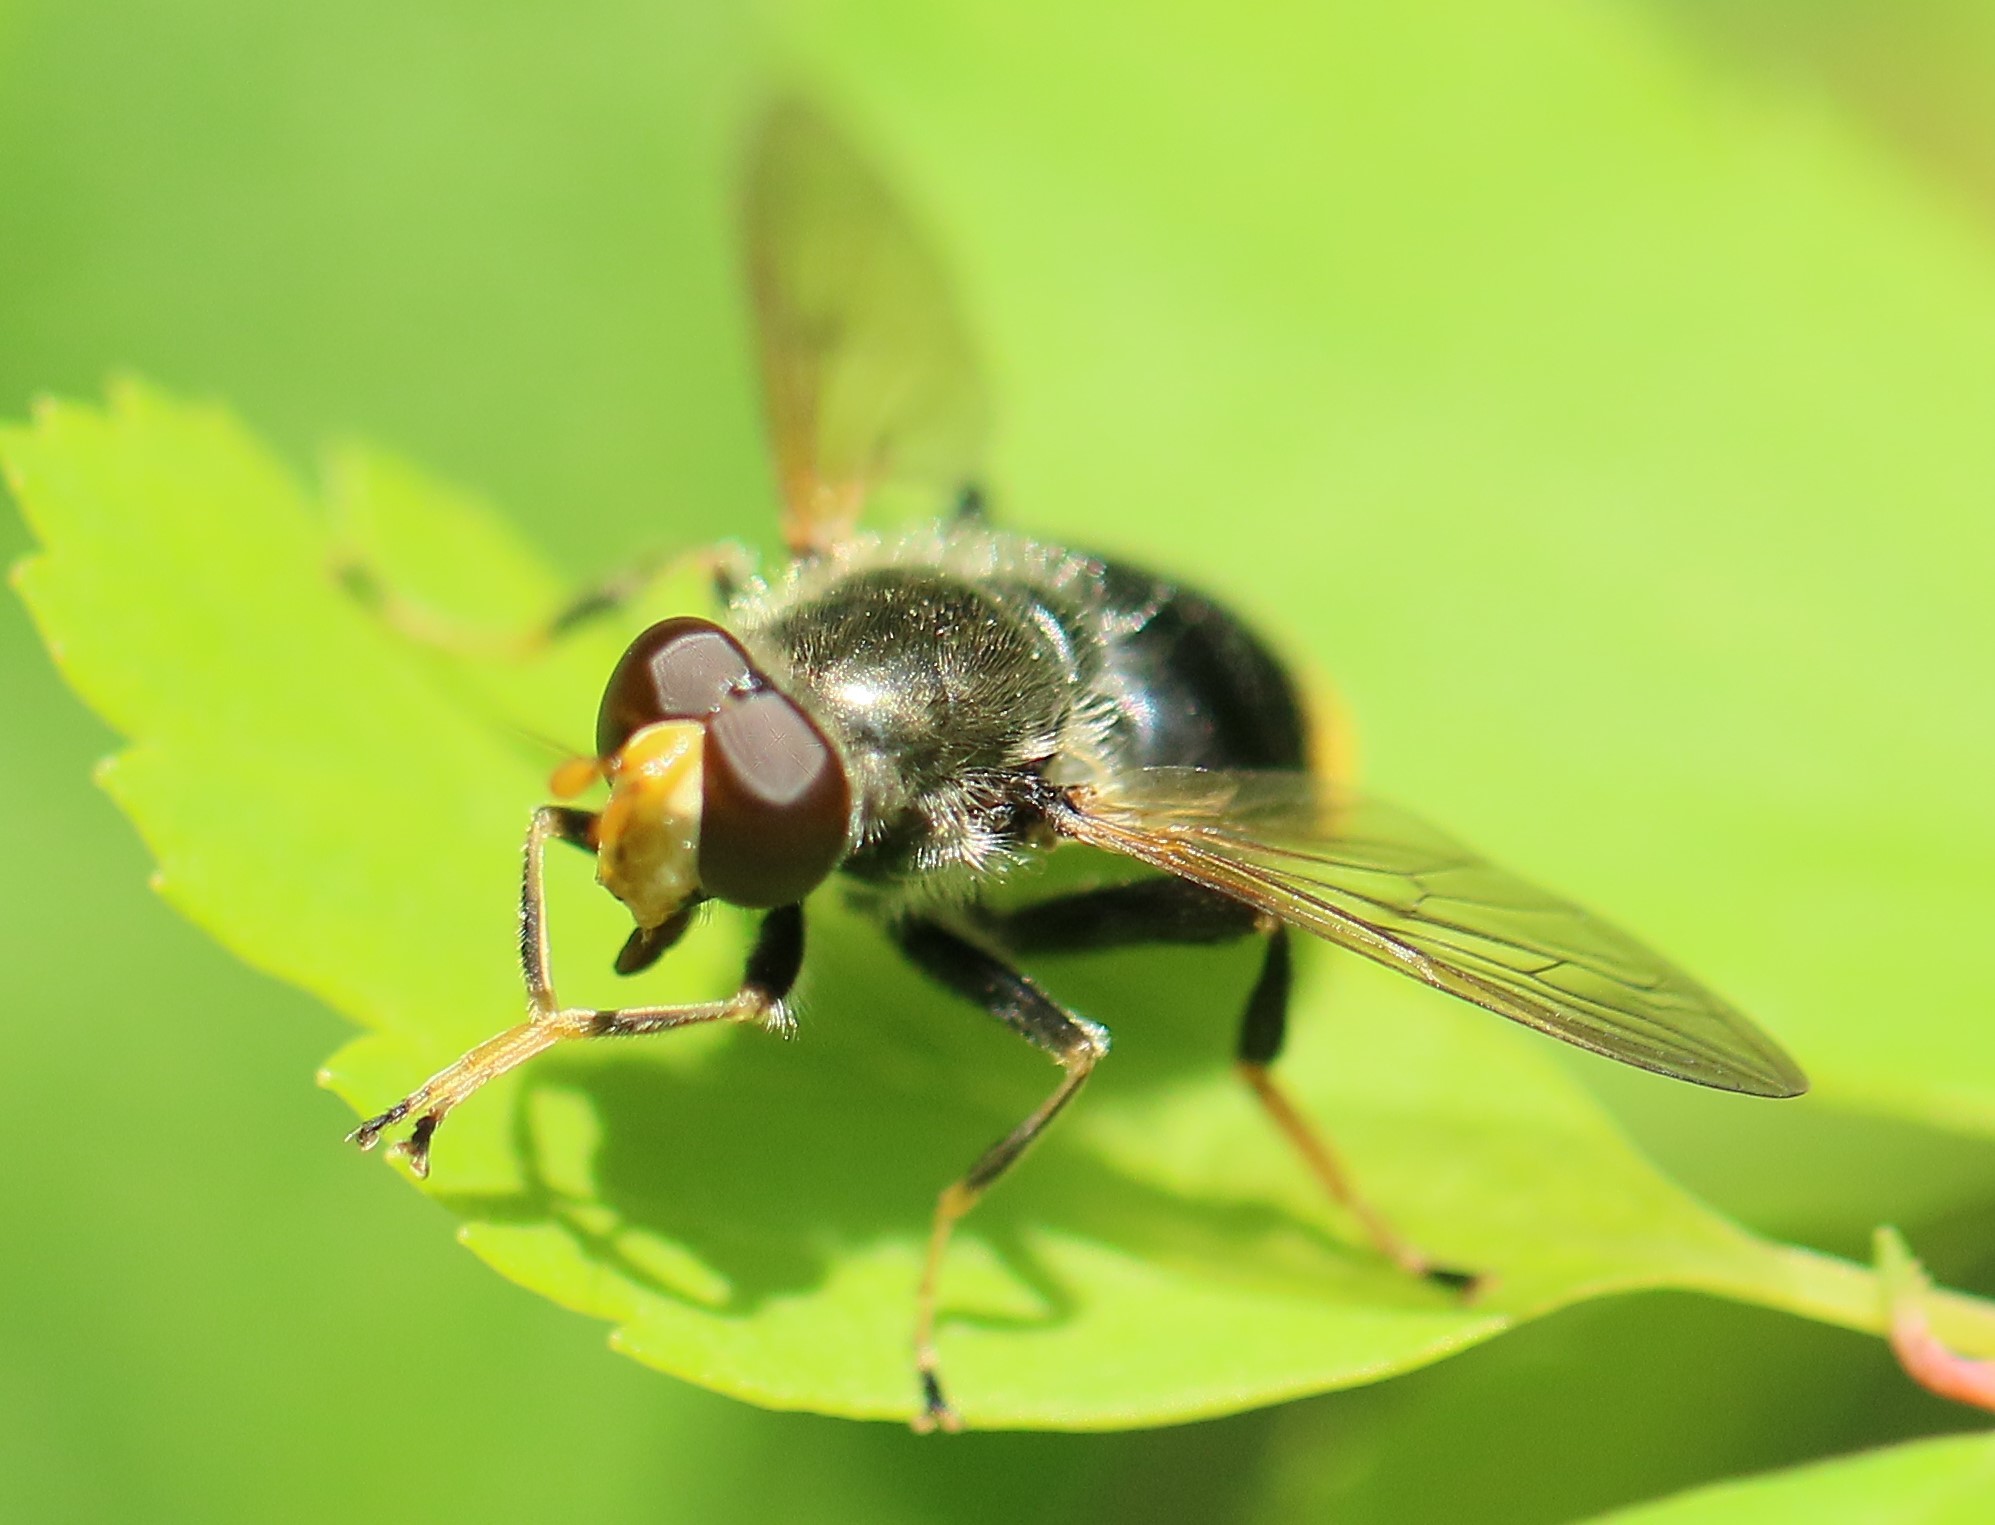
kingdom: Animalia
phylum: Arthropoda
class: Insecta
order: Diptera
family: Syrphidae
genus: Blera
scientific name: Blera analis
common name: Orange-tailed wood fly
